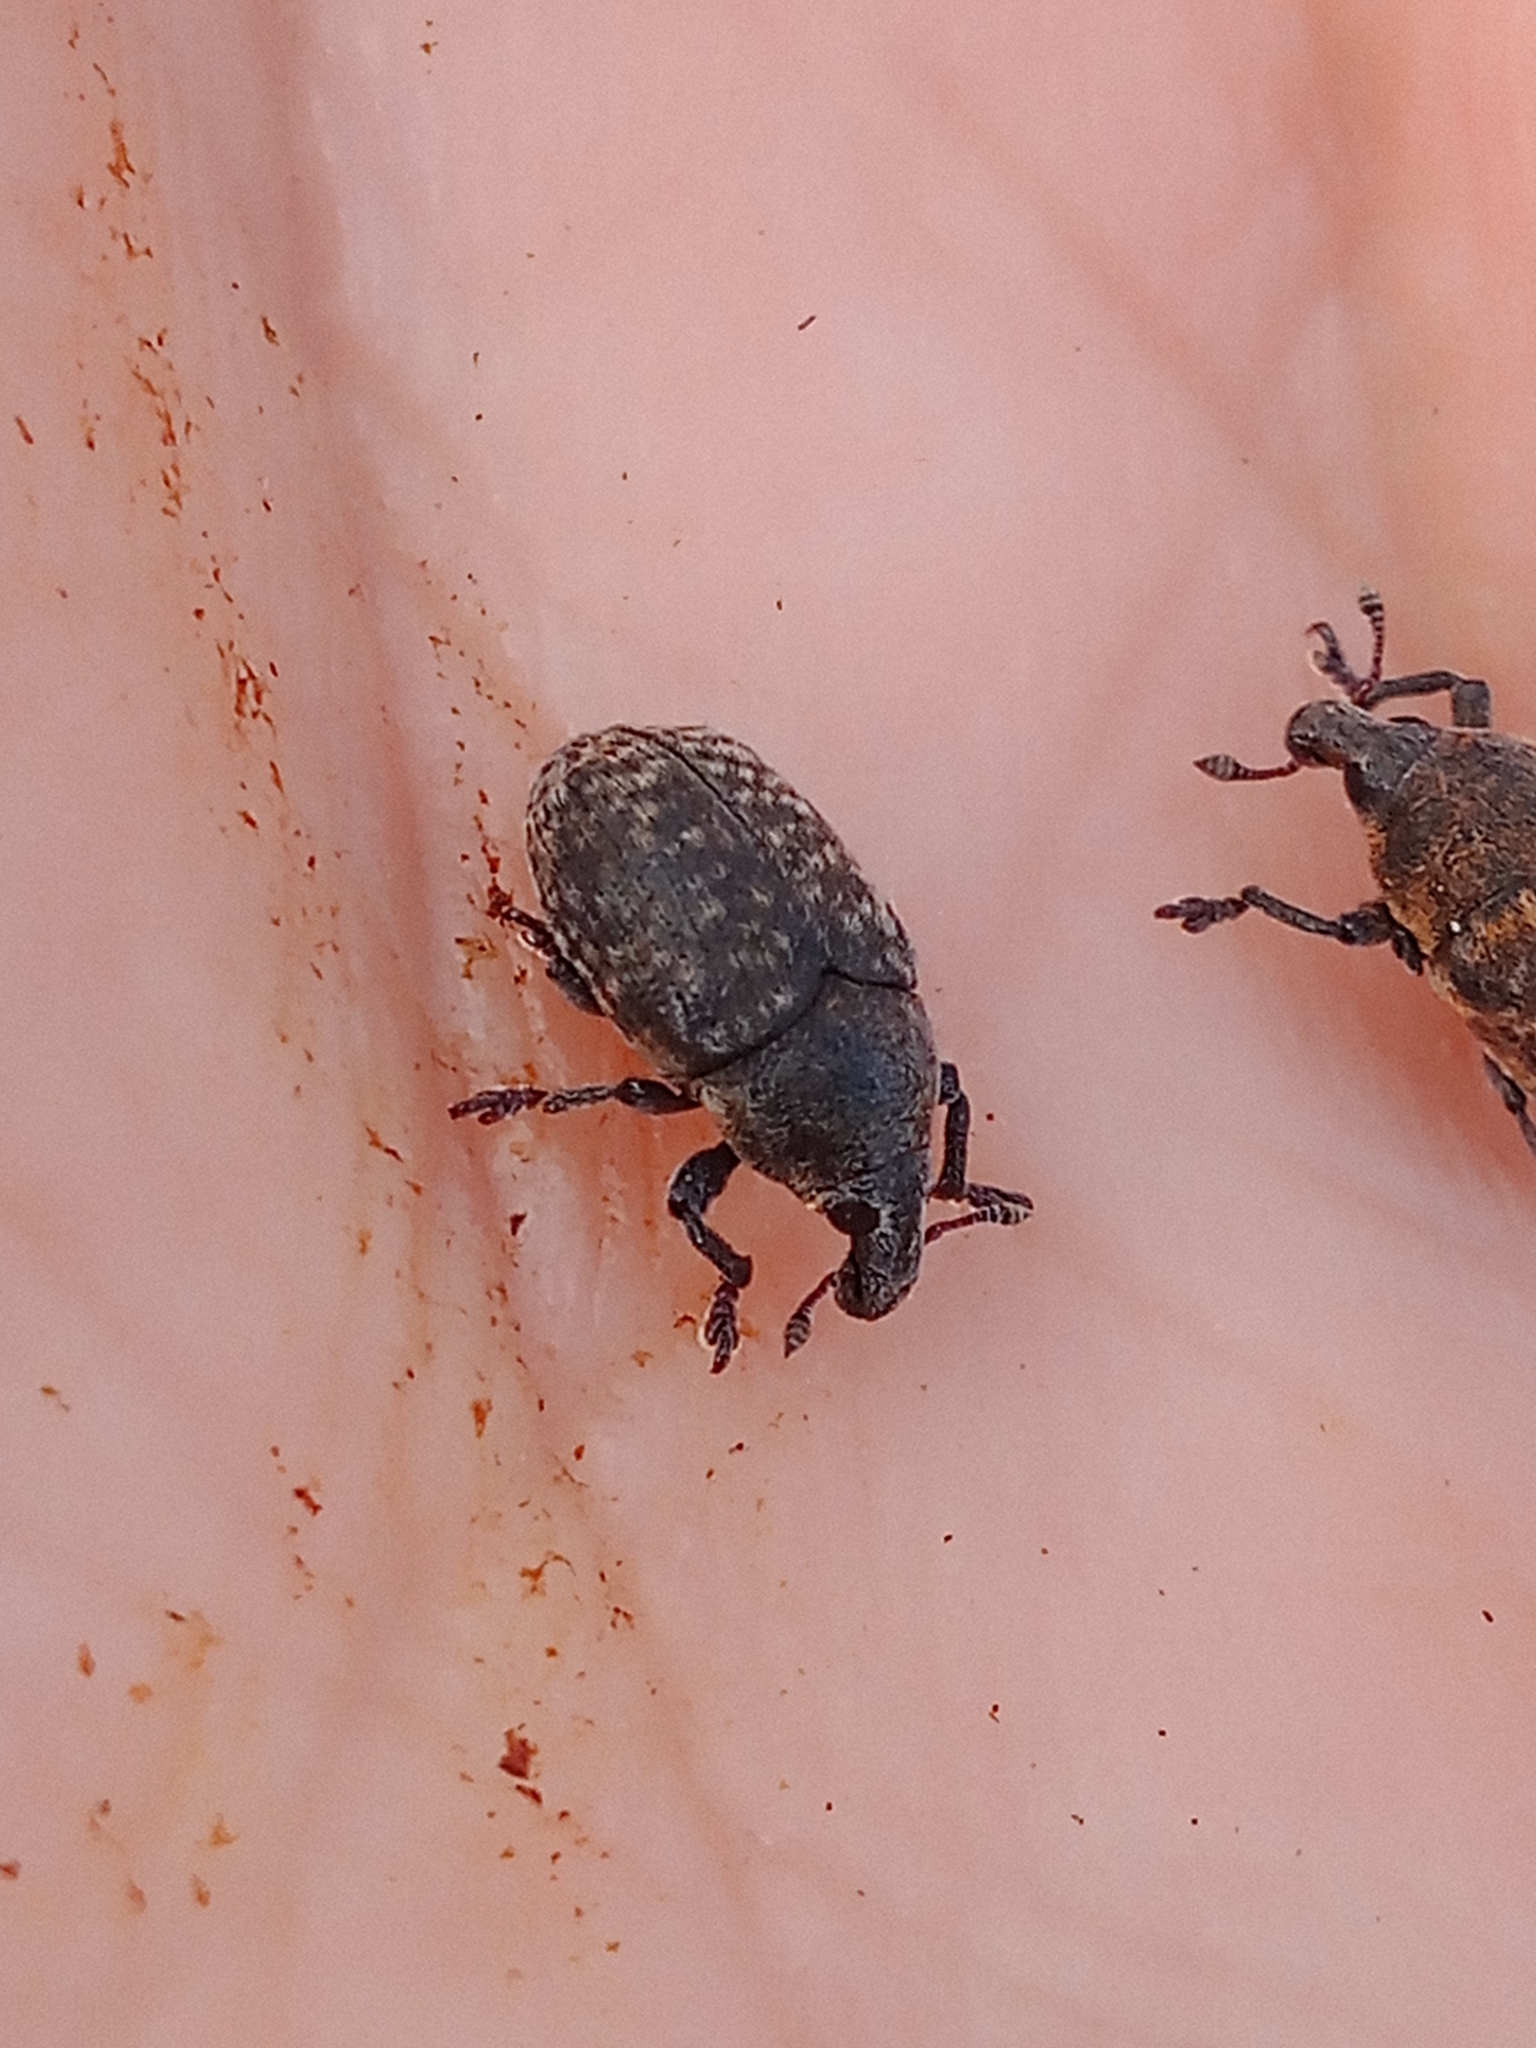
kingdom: Animalia
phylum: Arthropoda
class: Insecta
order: Coleoptera
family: Curculionidae
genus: Larinus
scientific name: Larinus obtusus
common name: Weevil
